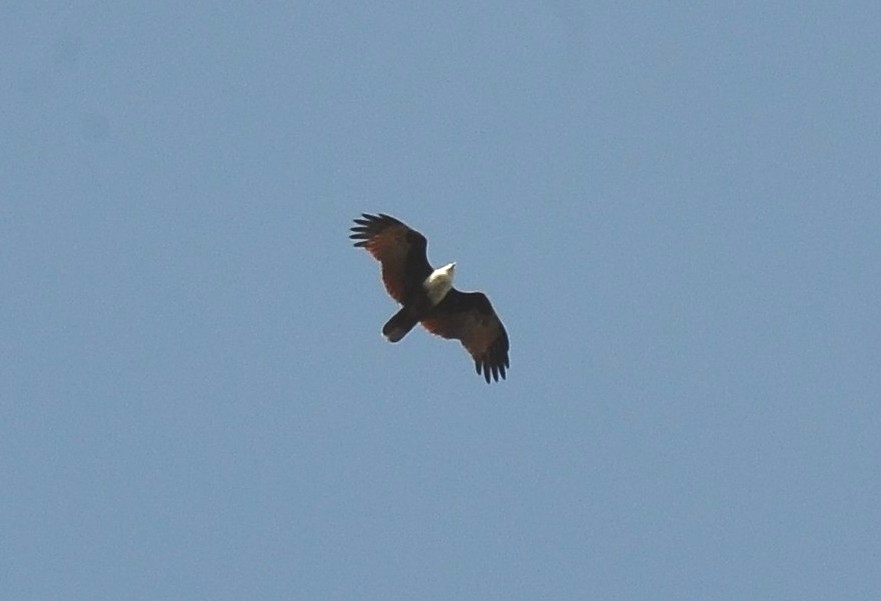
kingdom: Animalia
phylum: Chordata
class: Aves
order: Accipitriformes
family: Accipitridae
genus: Haliastur
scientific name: Haliastur indus
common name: Brahminy kite
